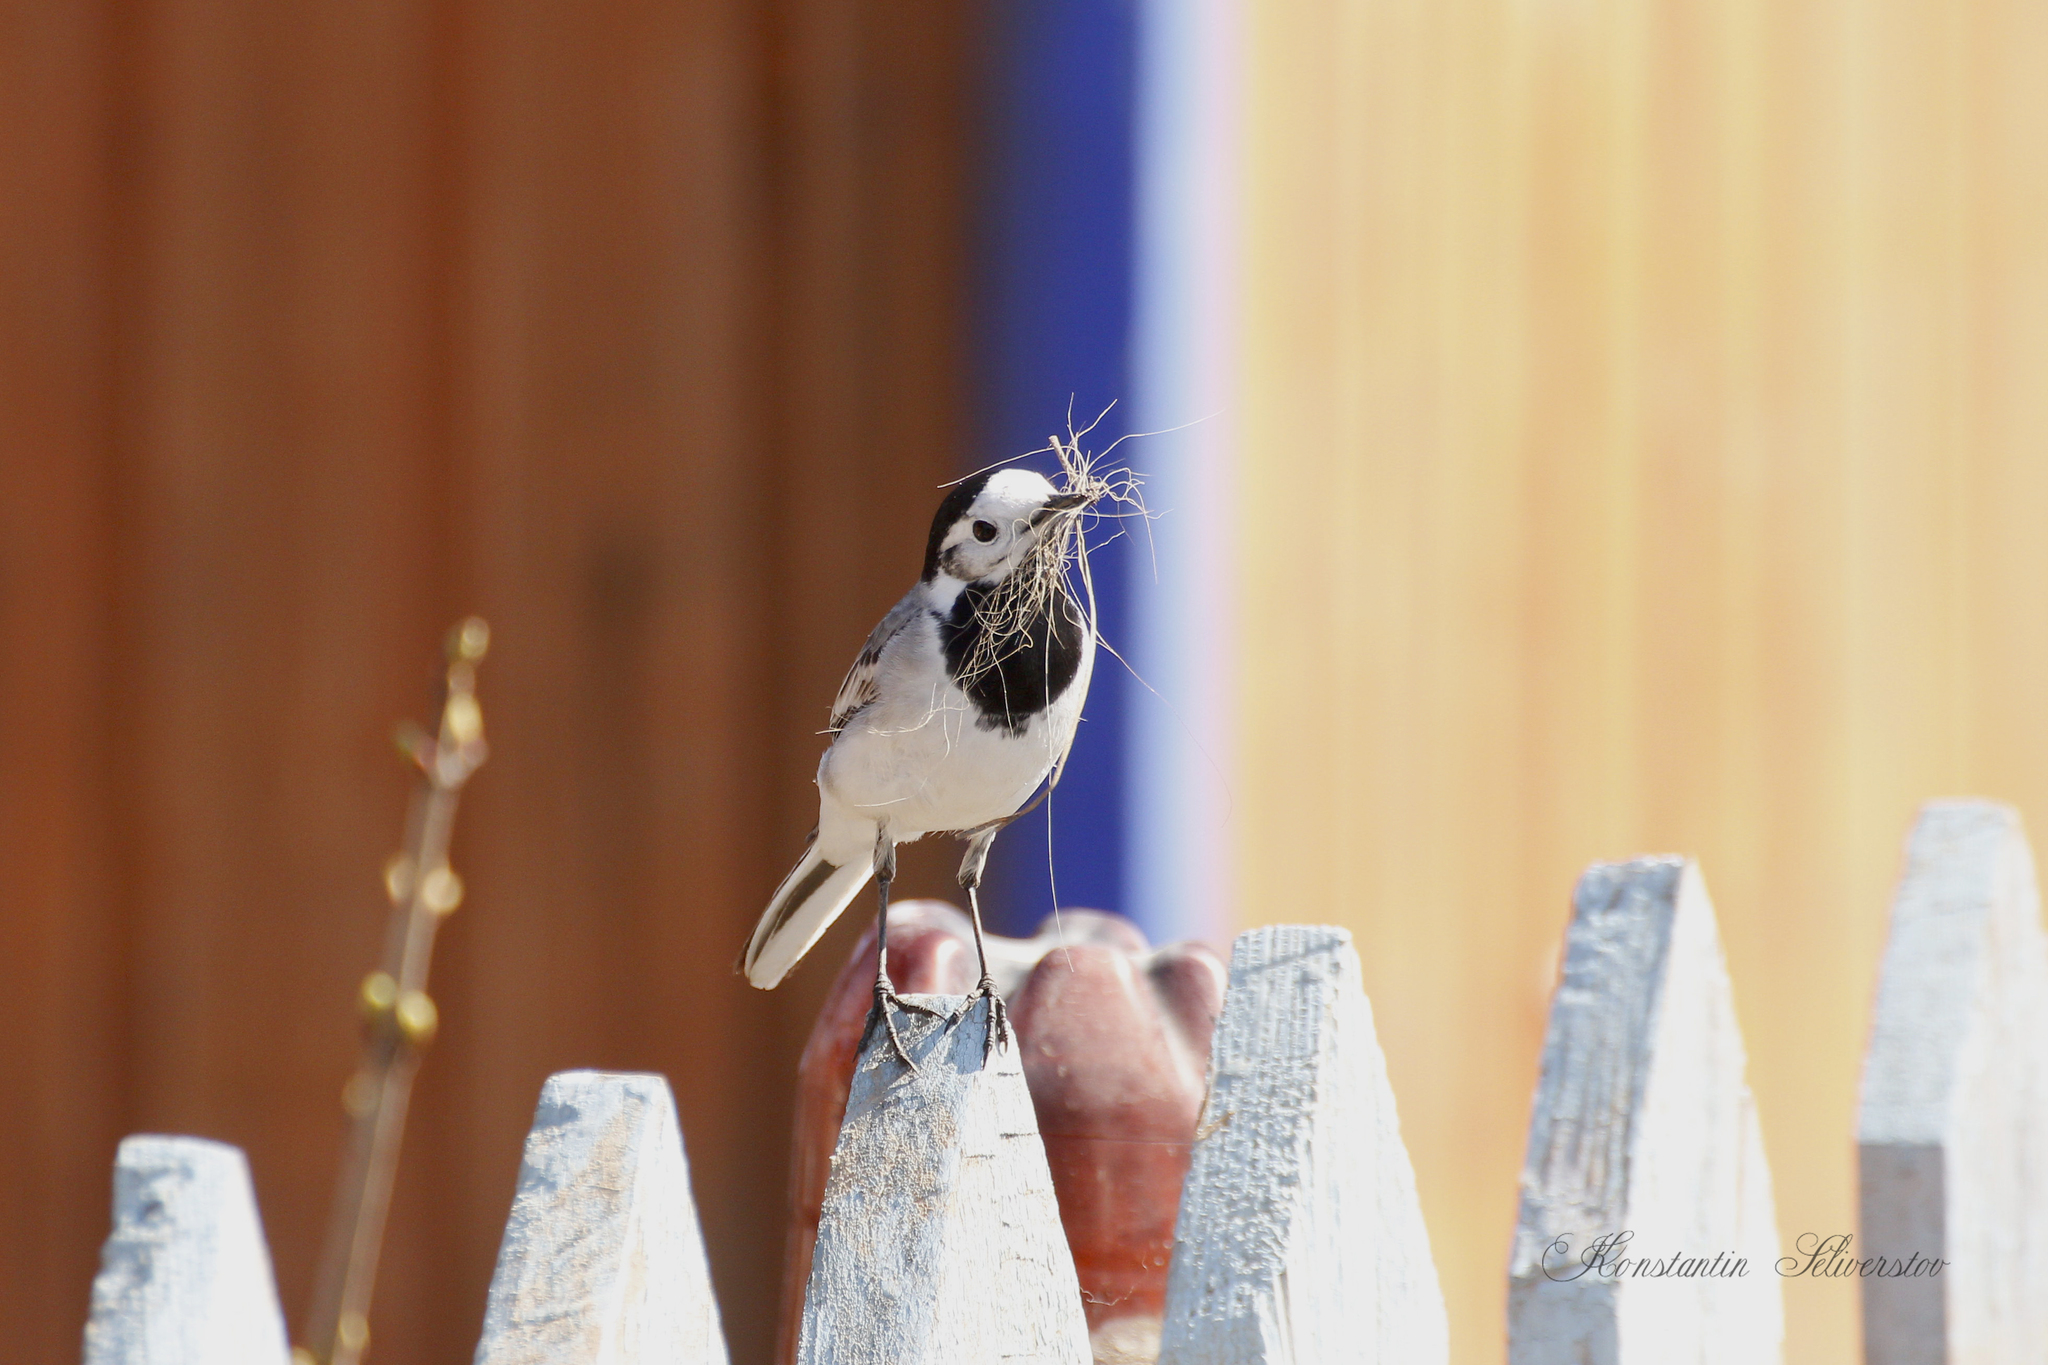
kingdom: Animalia
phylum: Chordata
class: Aves
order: Passeriformes
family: Motacillidae
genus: Motacilla
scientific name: Motacilla alba
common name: White wagtail
